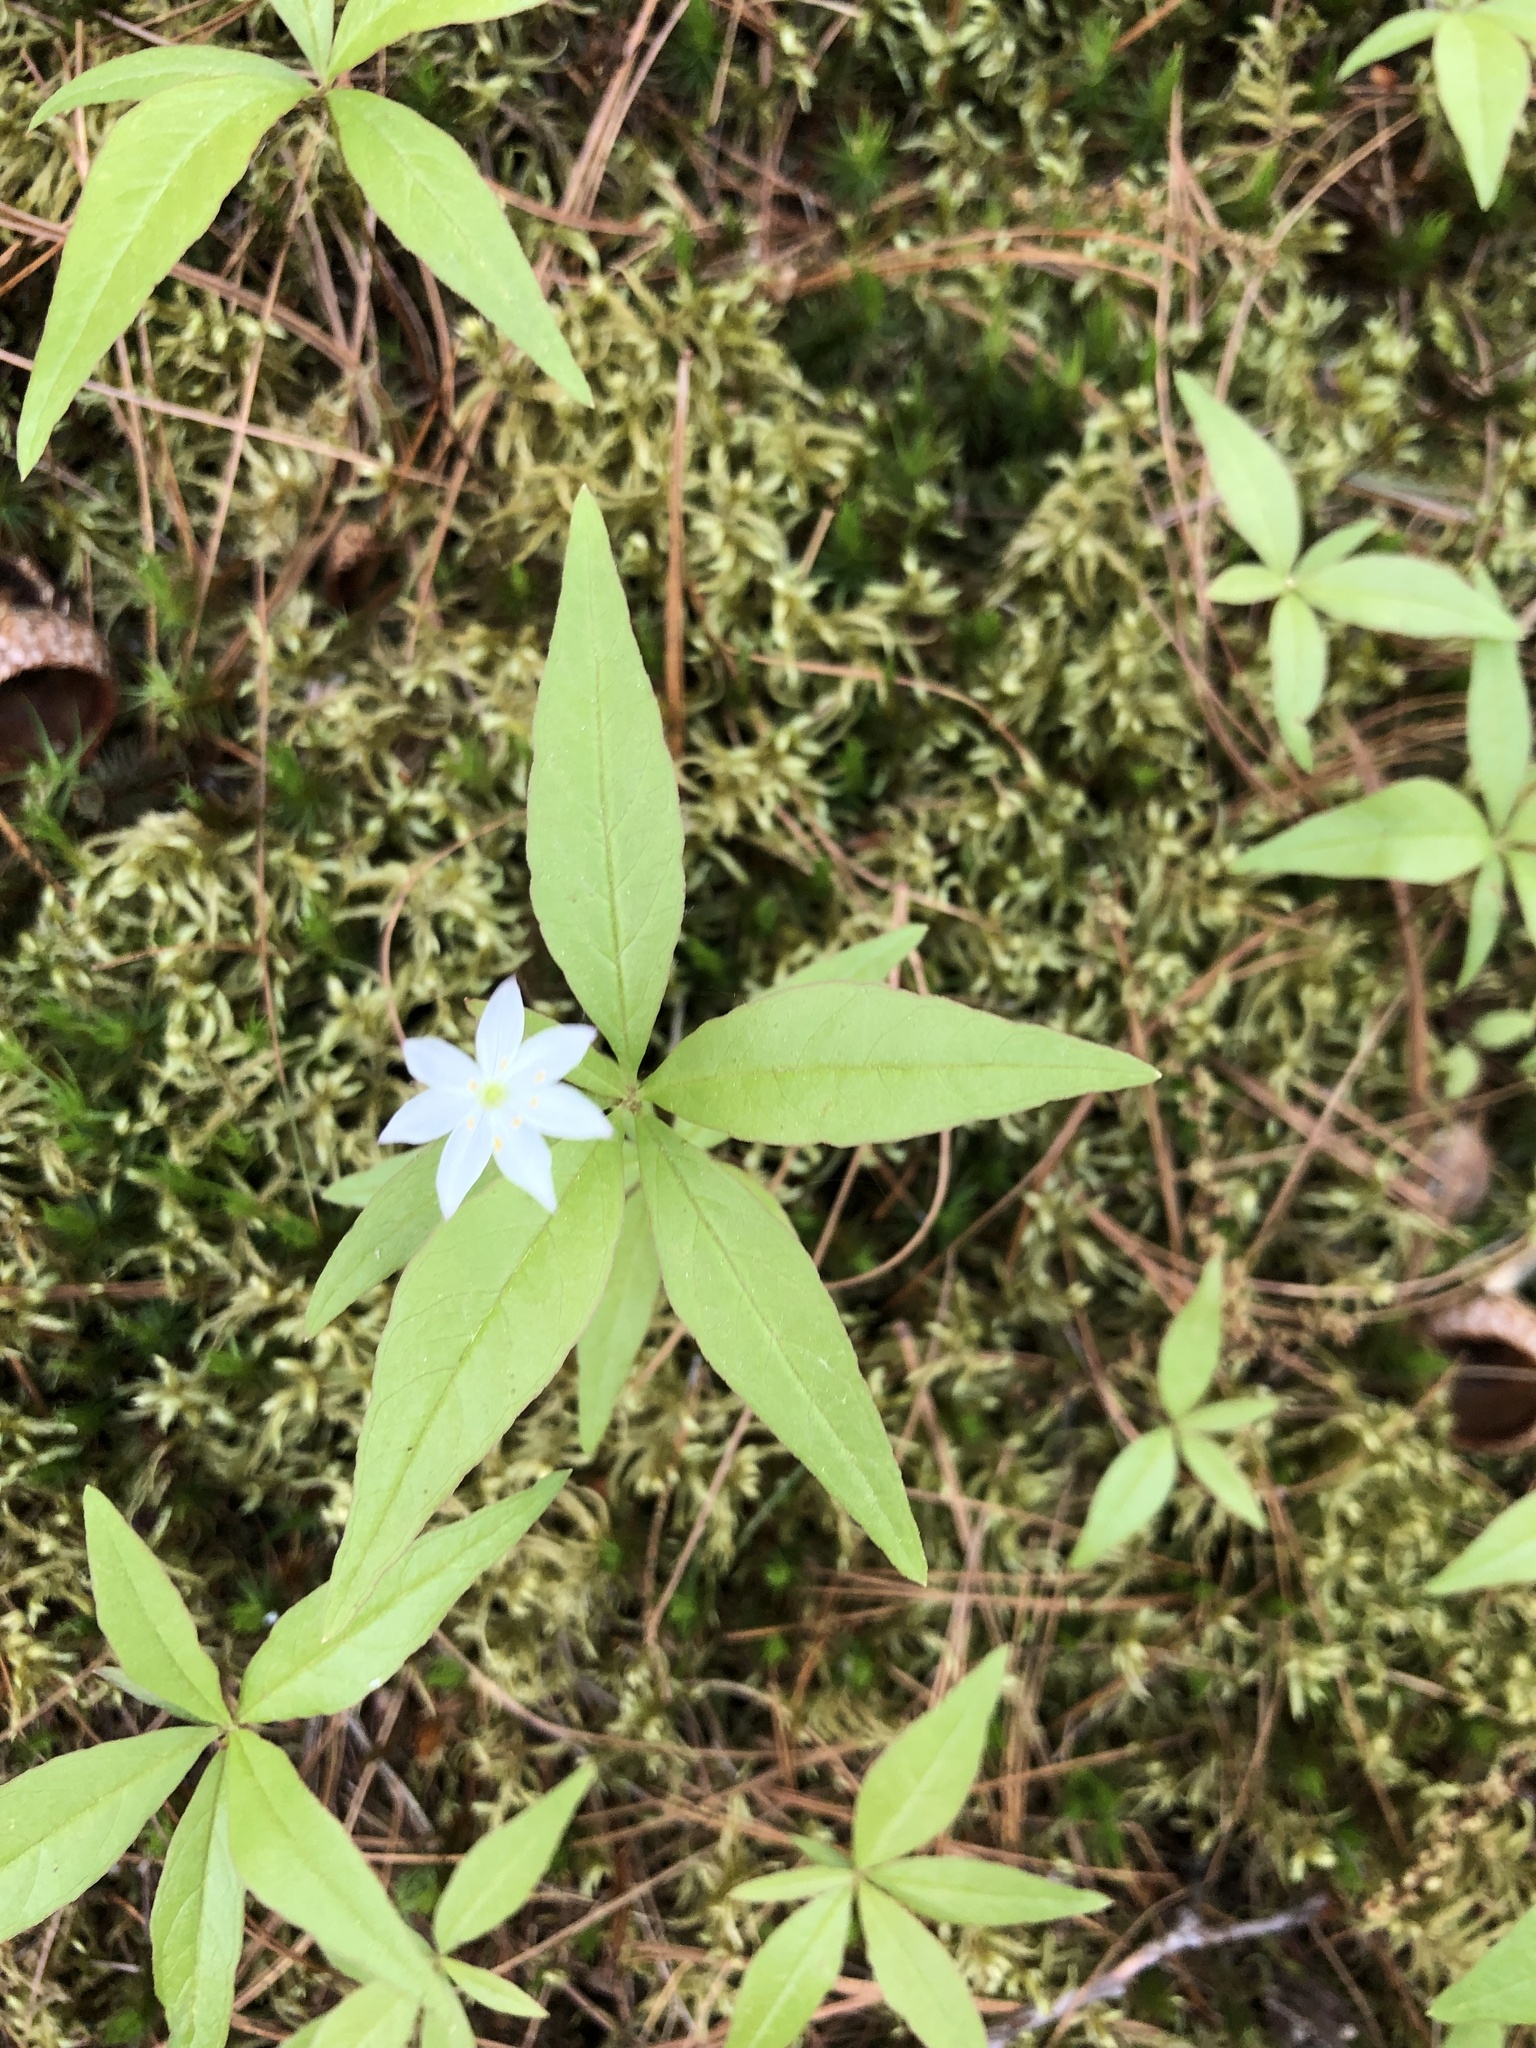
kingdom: Plantae
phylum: Tracheophyta
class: Magnoliopsida
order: Ericales
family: Primulaceae
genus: Lysimachia
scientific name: Lysimachia borealis
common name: American starflower
